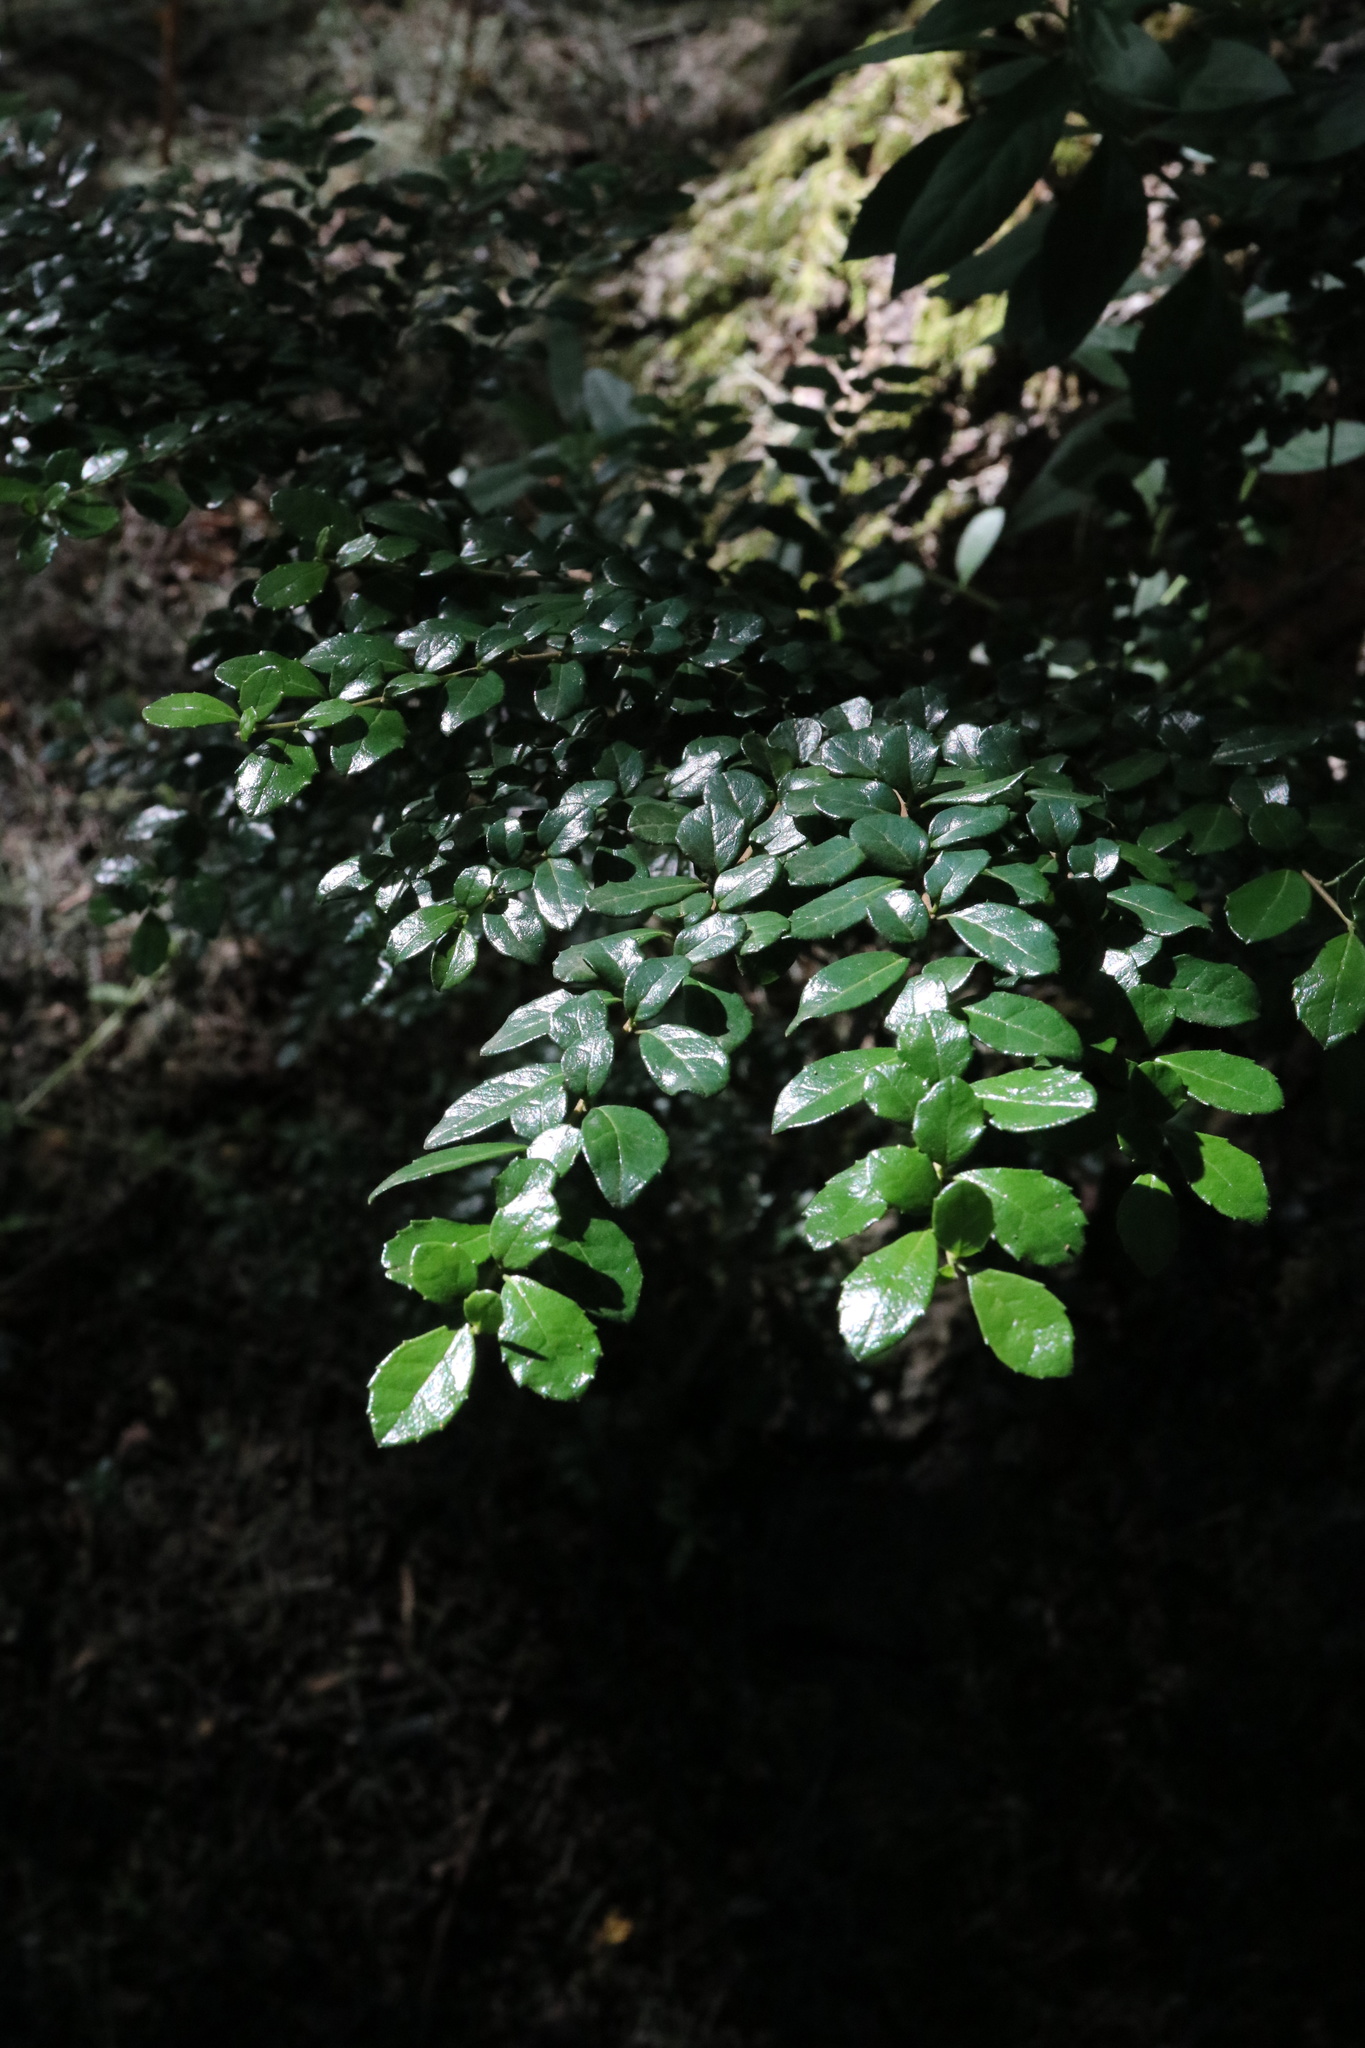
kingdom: Plantae
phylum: Tracheophyta
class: Magnoliopsida
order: Malpighiales
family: Salicaceae
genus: Azara
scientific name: Azara microphylla
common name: Box-leaf azara
